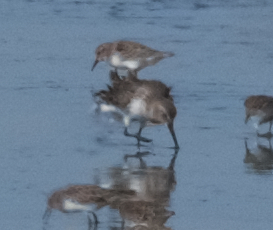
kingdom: Animalia
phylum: Chordata
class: Aves
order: Charadriiformes
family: Scolopacidae
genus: Calidris
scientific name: Calidris alpina
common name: Dunlin
